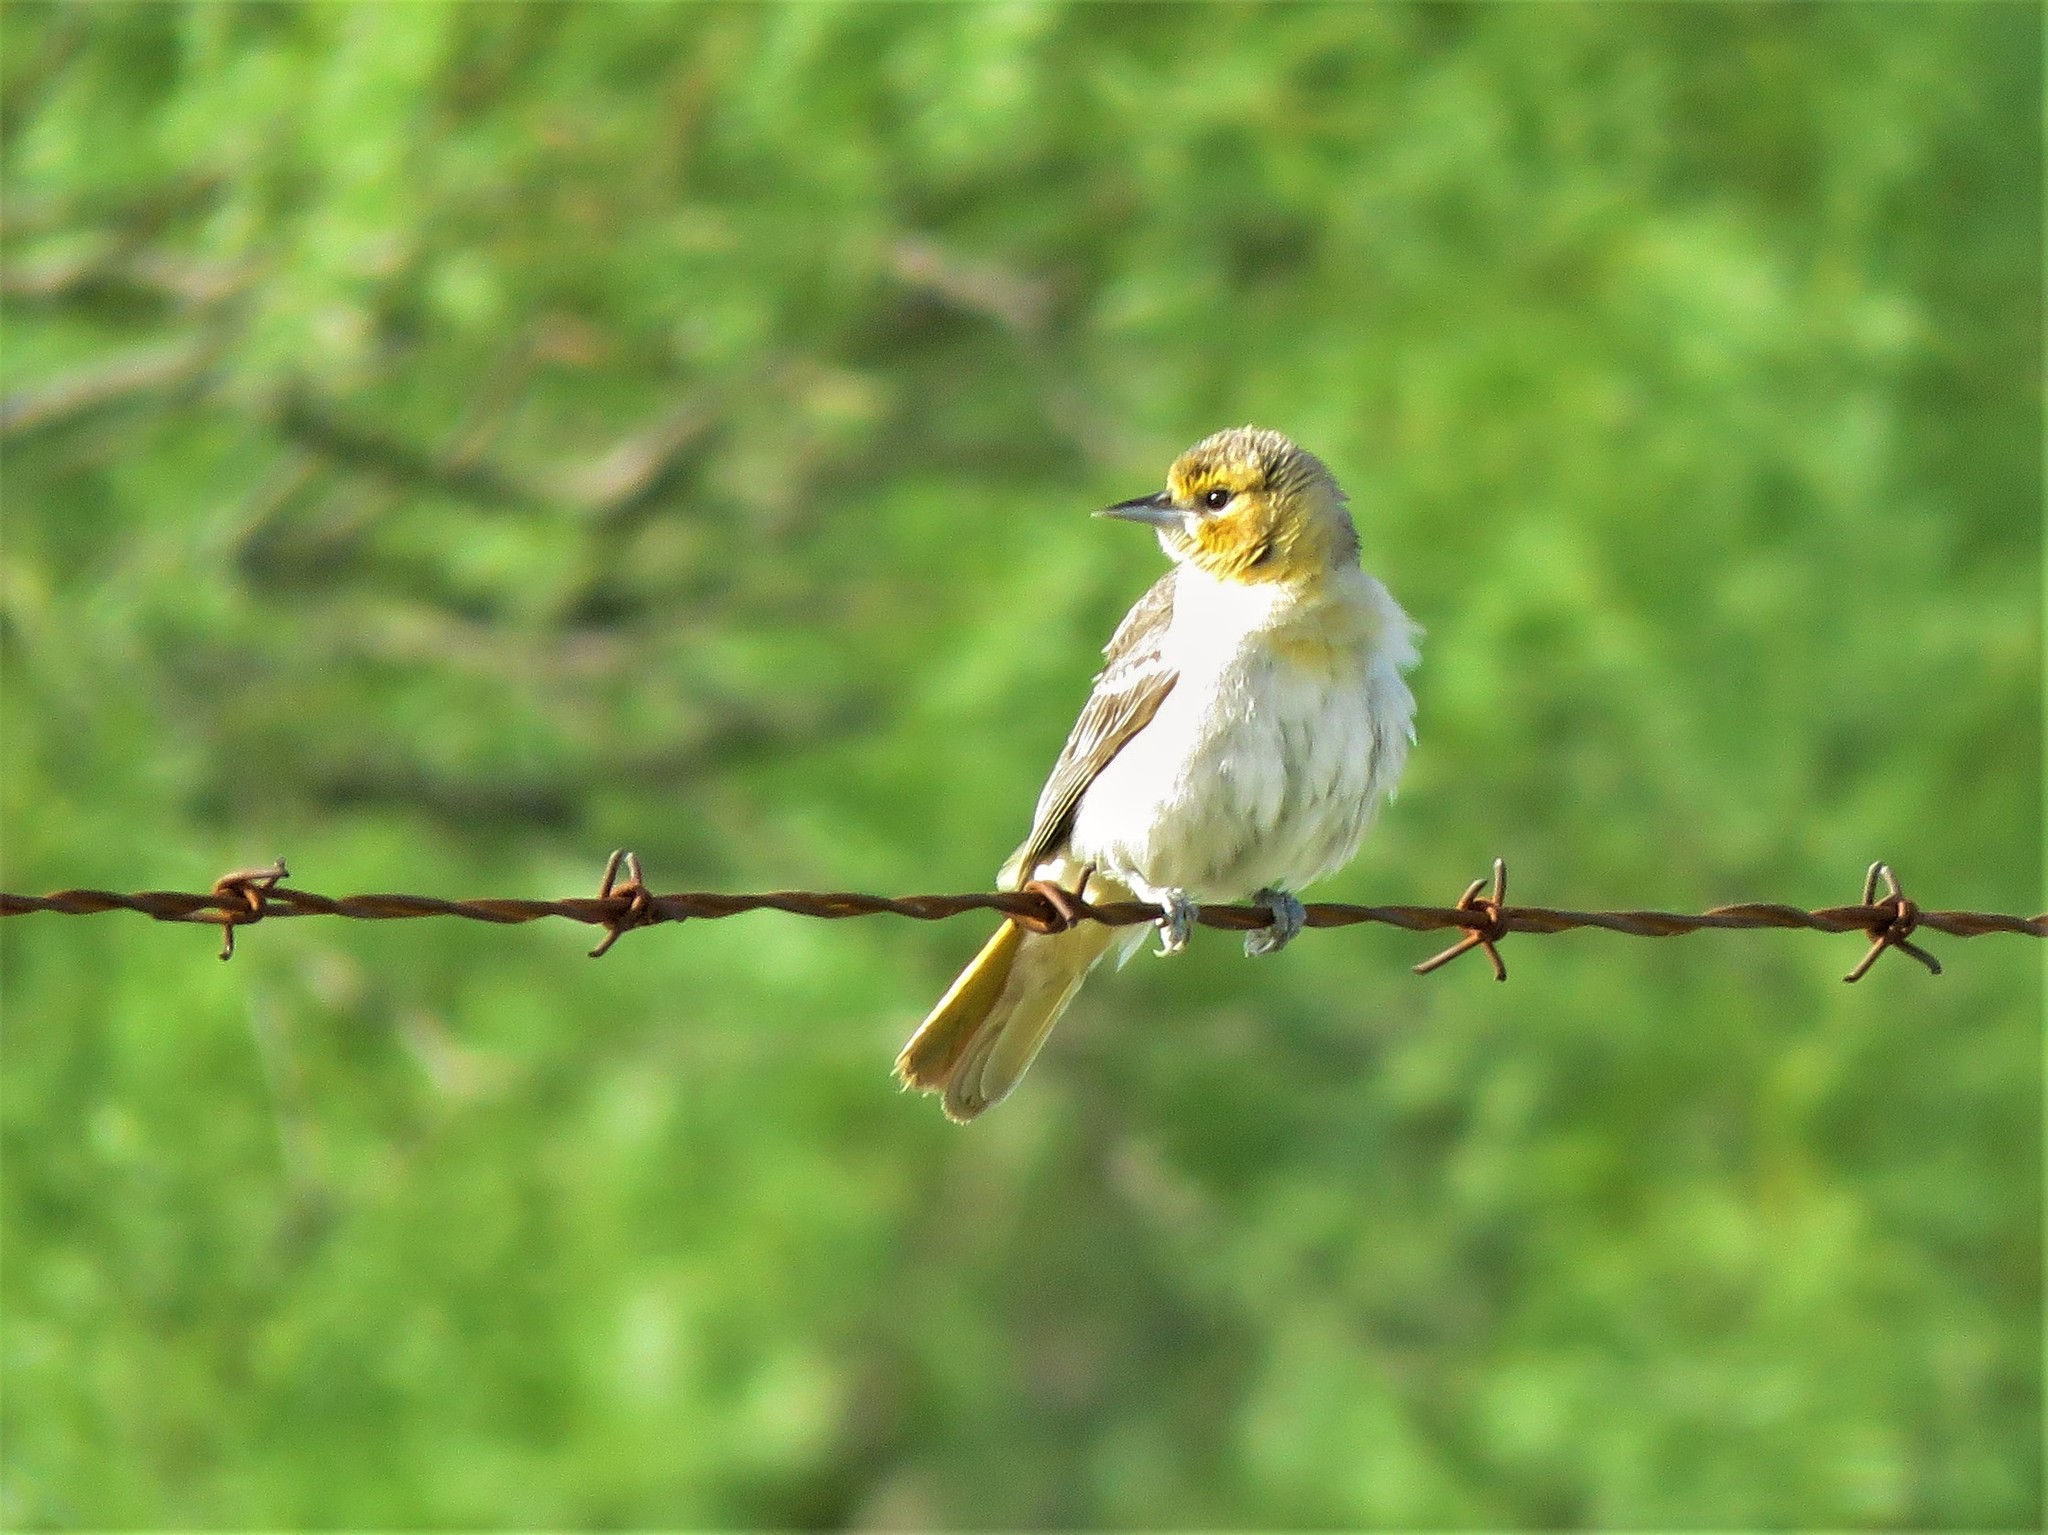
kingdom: Animalia
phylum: Chordata
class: Aves
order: Passeriformes
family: Icteridae
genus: Icterus
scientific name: Icterus bullockii
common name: Bullock's oriole
